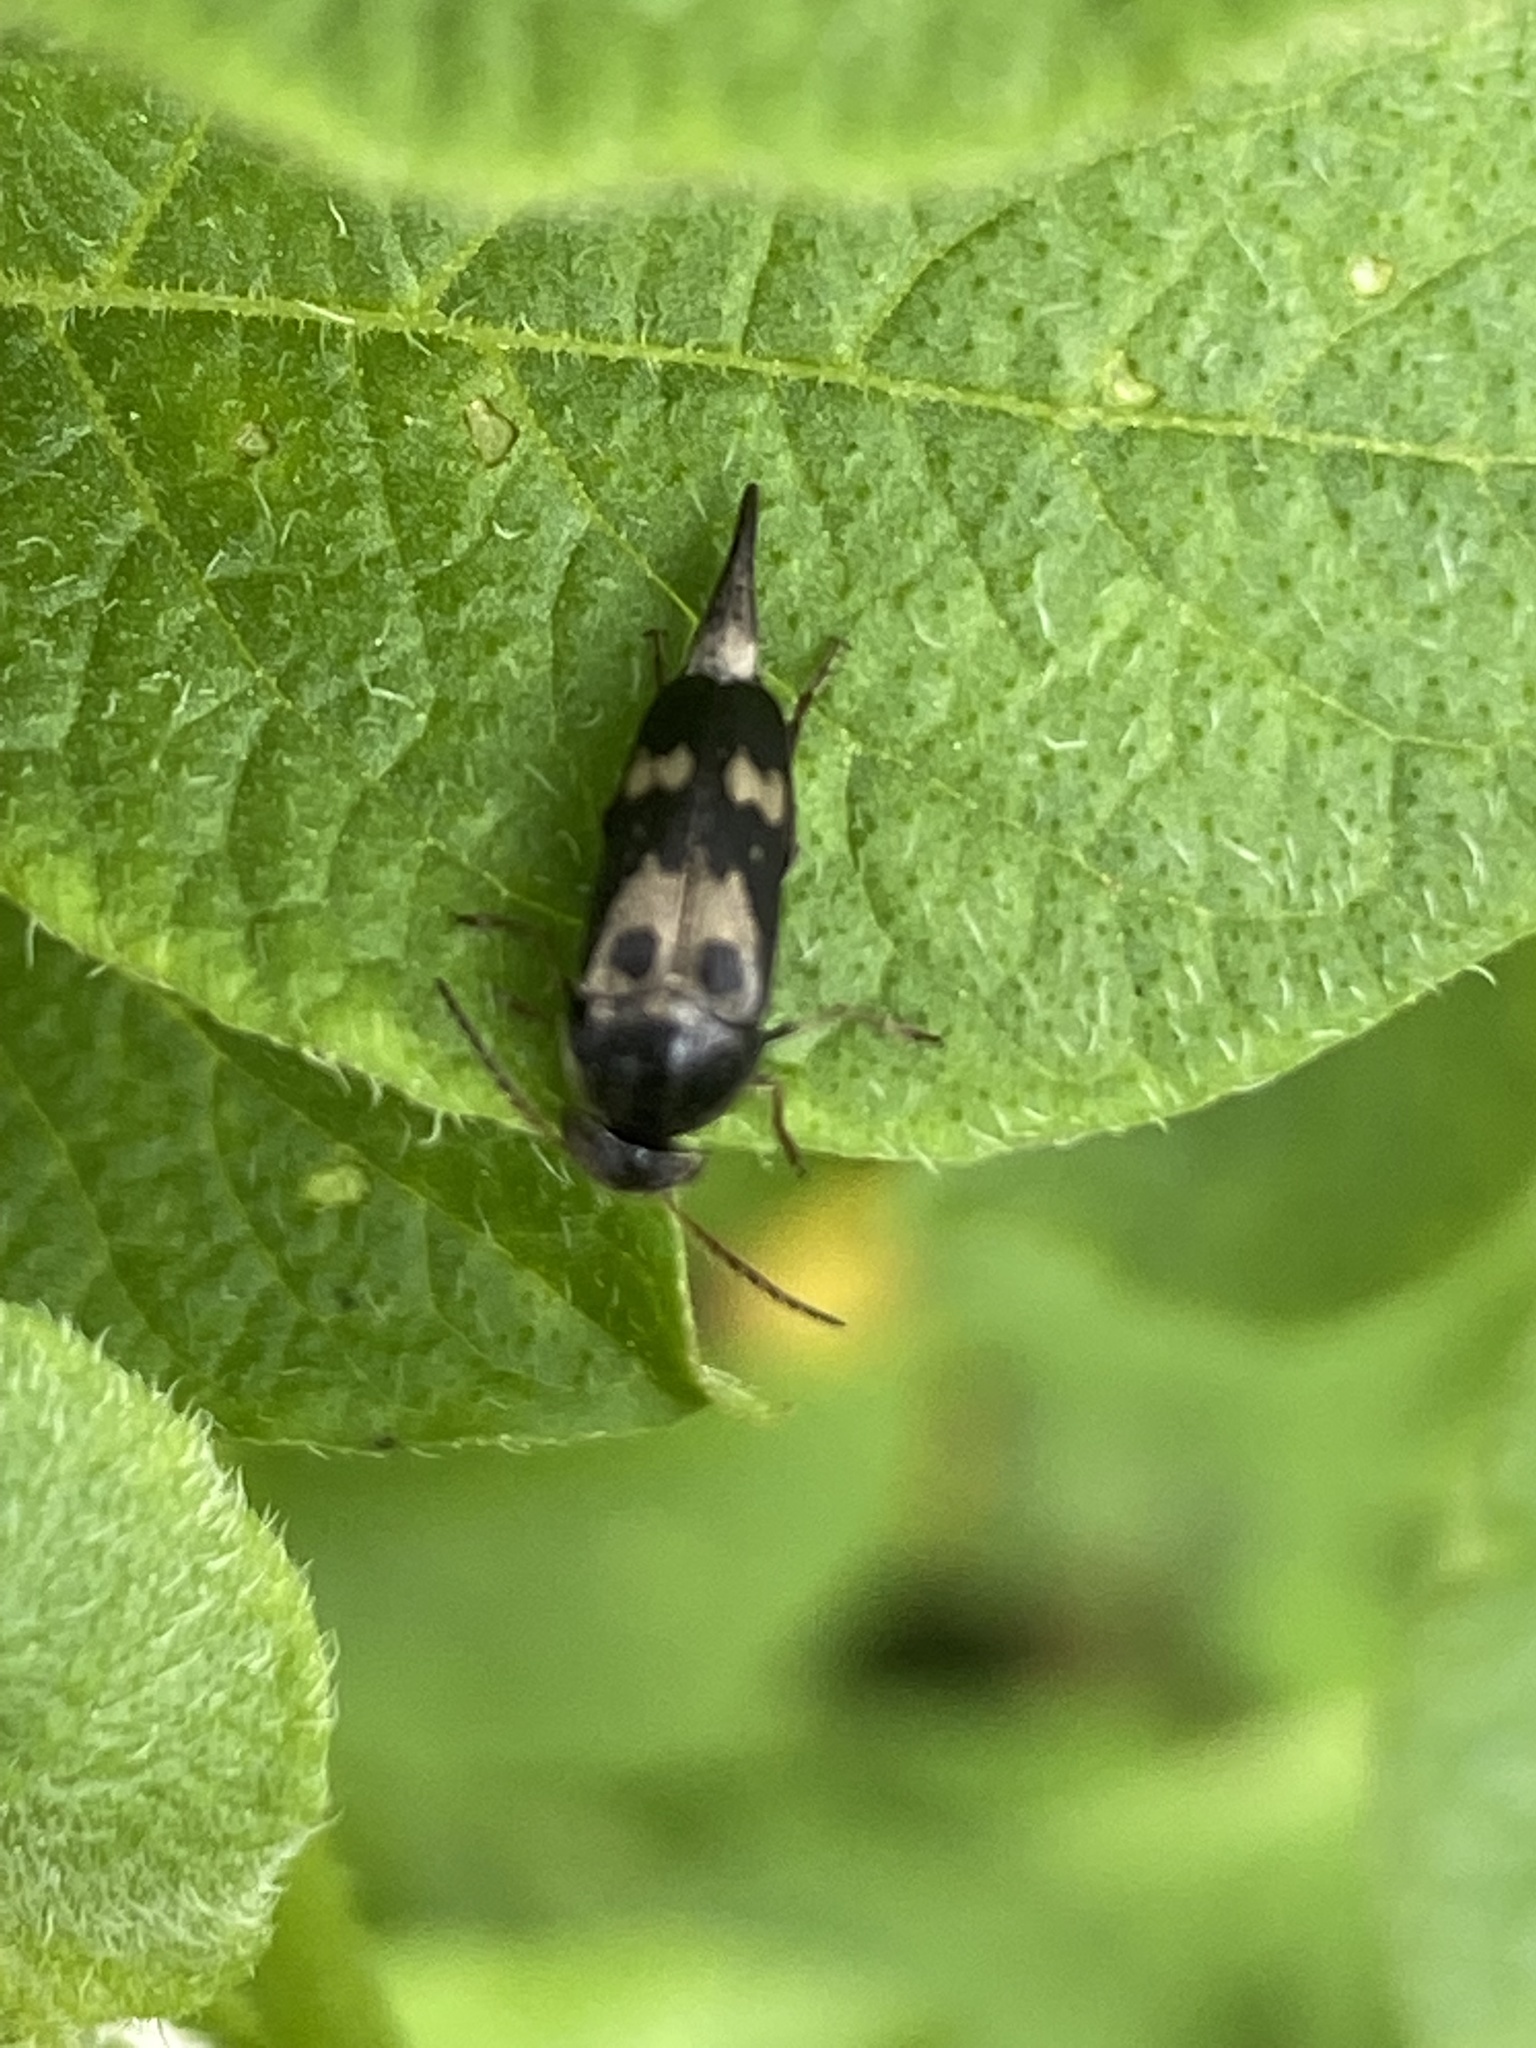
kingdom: Animalia
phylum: Arthropoda
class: Insecta
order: Coleoptera
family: Mordellidae
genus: Glipa
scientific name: Glipa oculata
